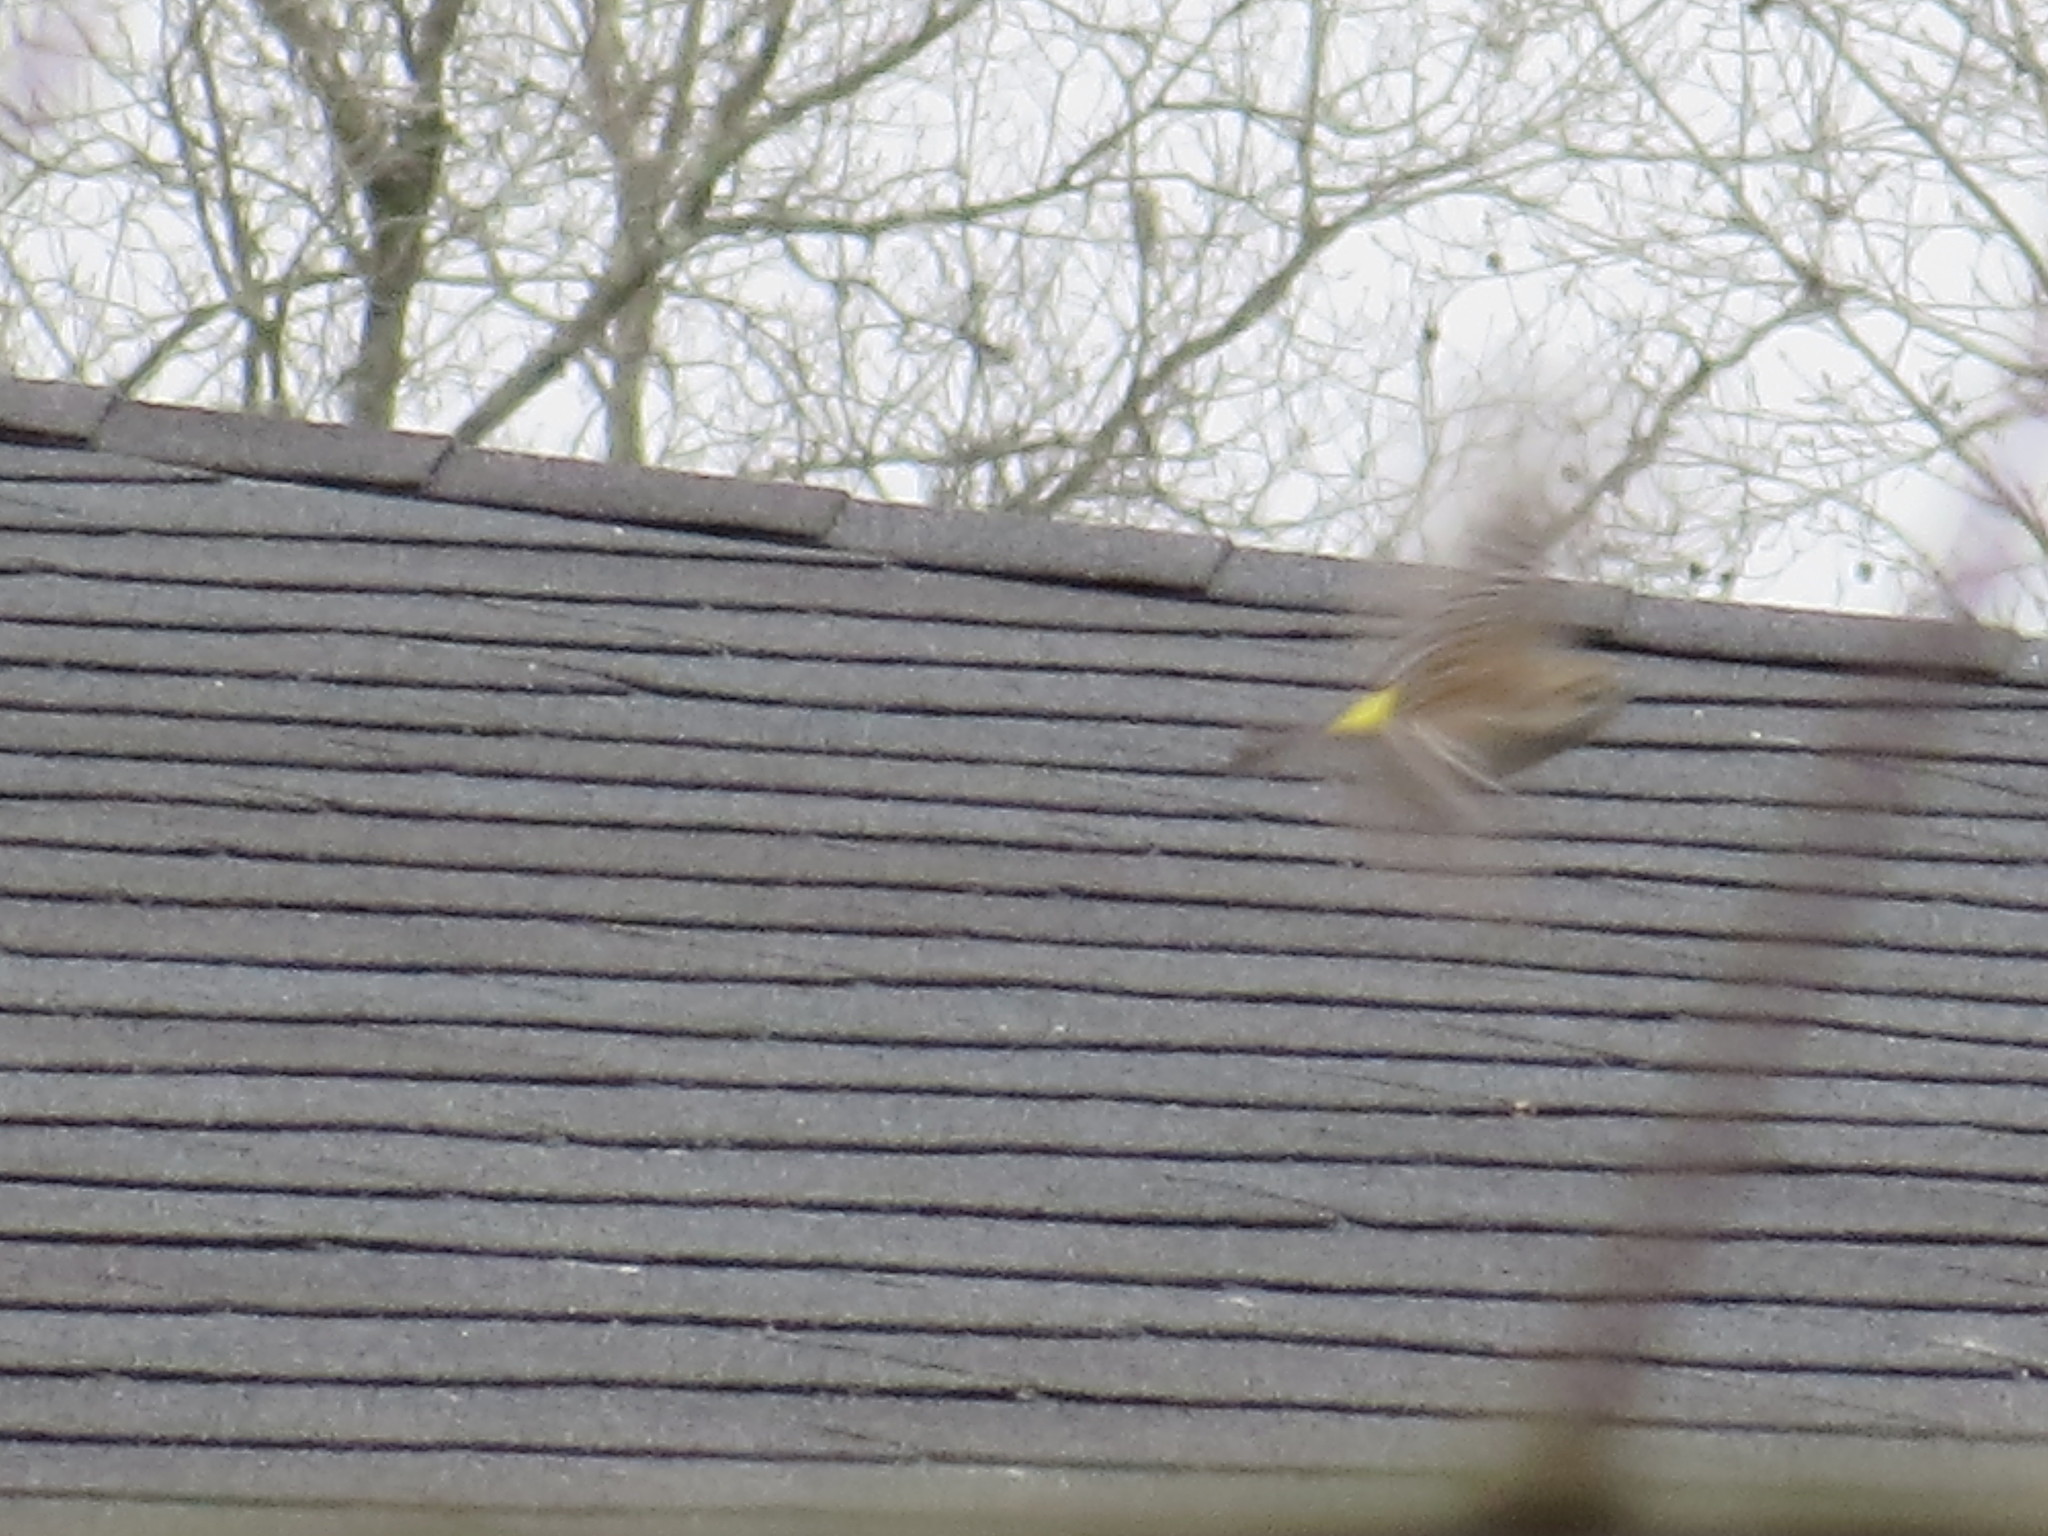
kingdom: Animalia
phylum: Chordata
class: Aves
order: Passeriformes
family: Parulidae
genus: Setophaga
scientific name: Setophaga coronata
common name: Myrtle warbler
